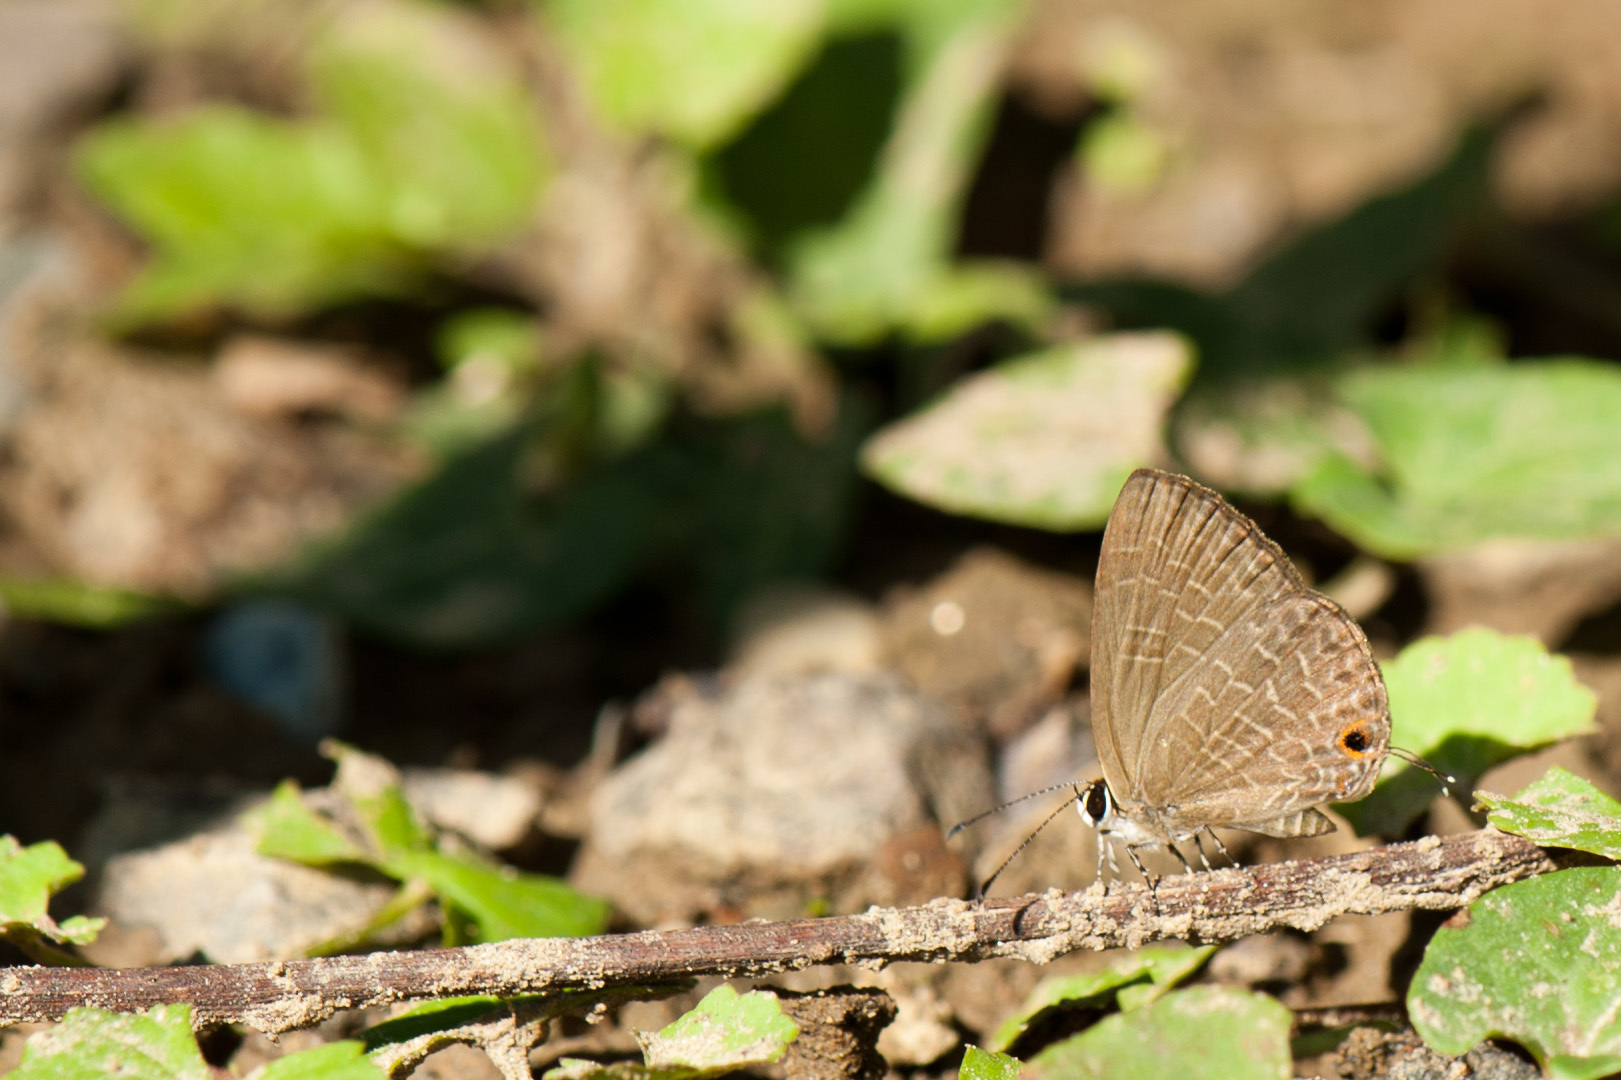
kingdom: Animalia
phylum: Arthropoda
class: Insecta
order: Lepidoptera
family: Lycaenidae
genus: Jamides
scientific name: Jamides bochus
